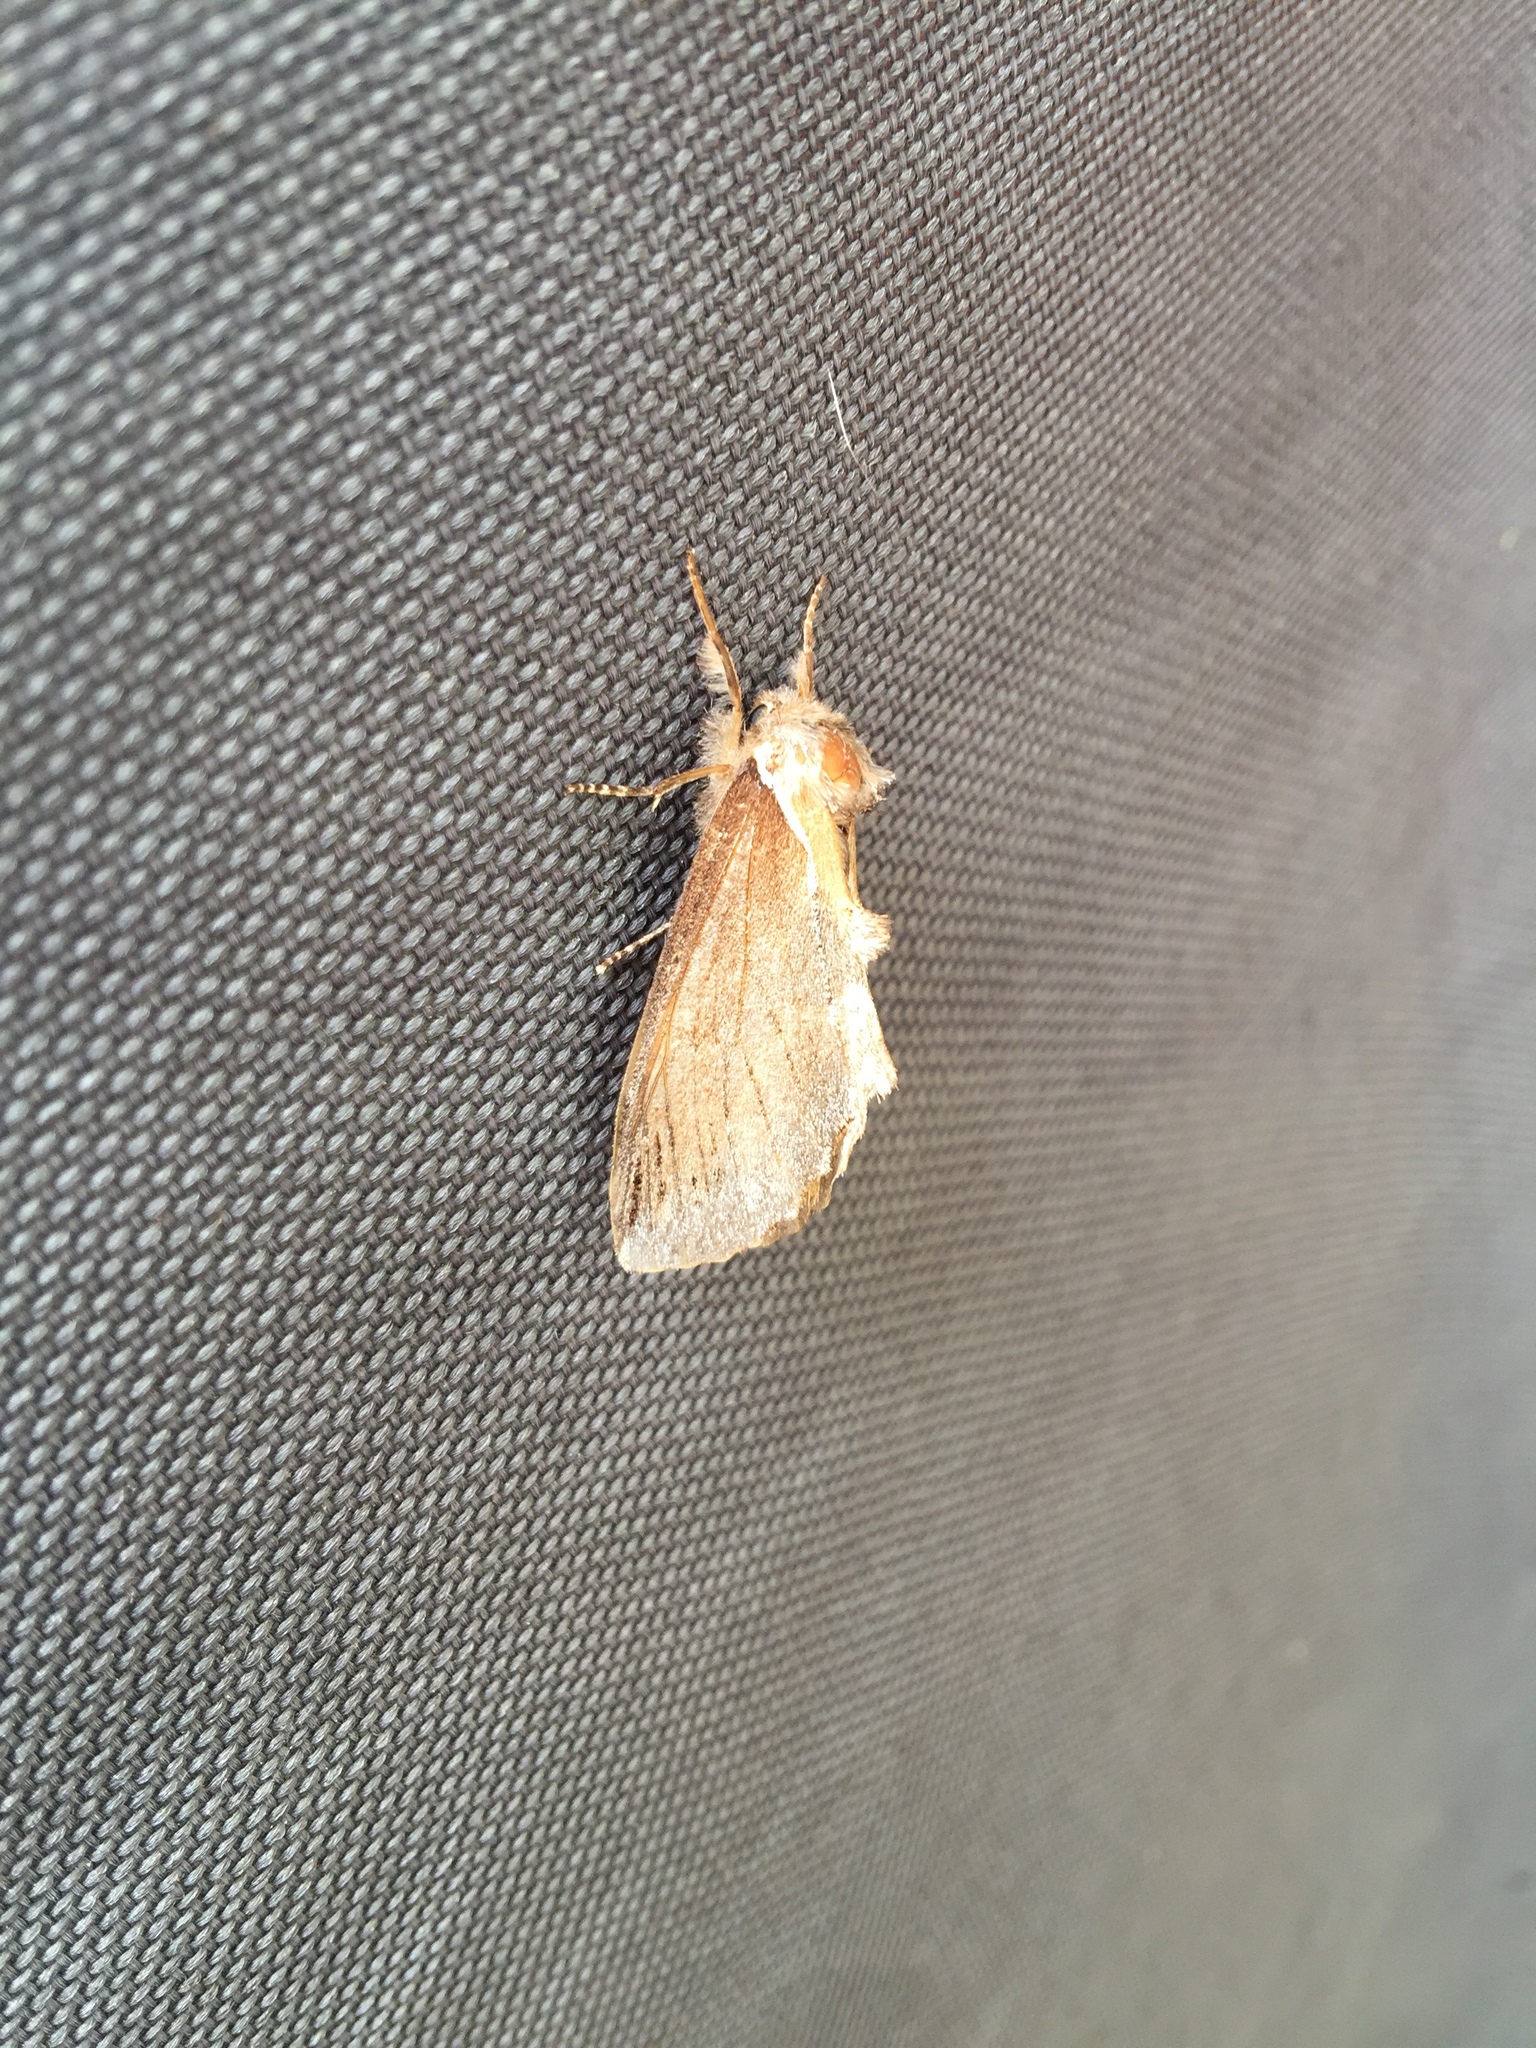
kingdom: Animalia
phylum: Arthropoda
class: Insecta
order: Lepidoptera
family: Notodontidae
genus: Pheosidea
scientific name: Pheosidea elegans
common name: Elegant prominent
